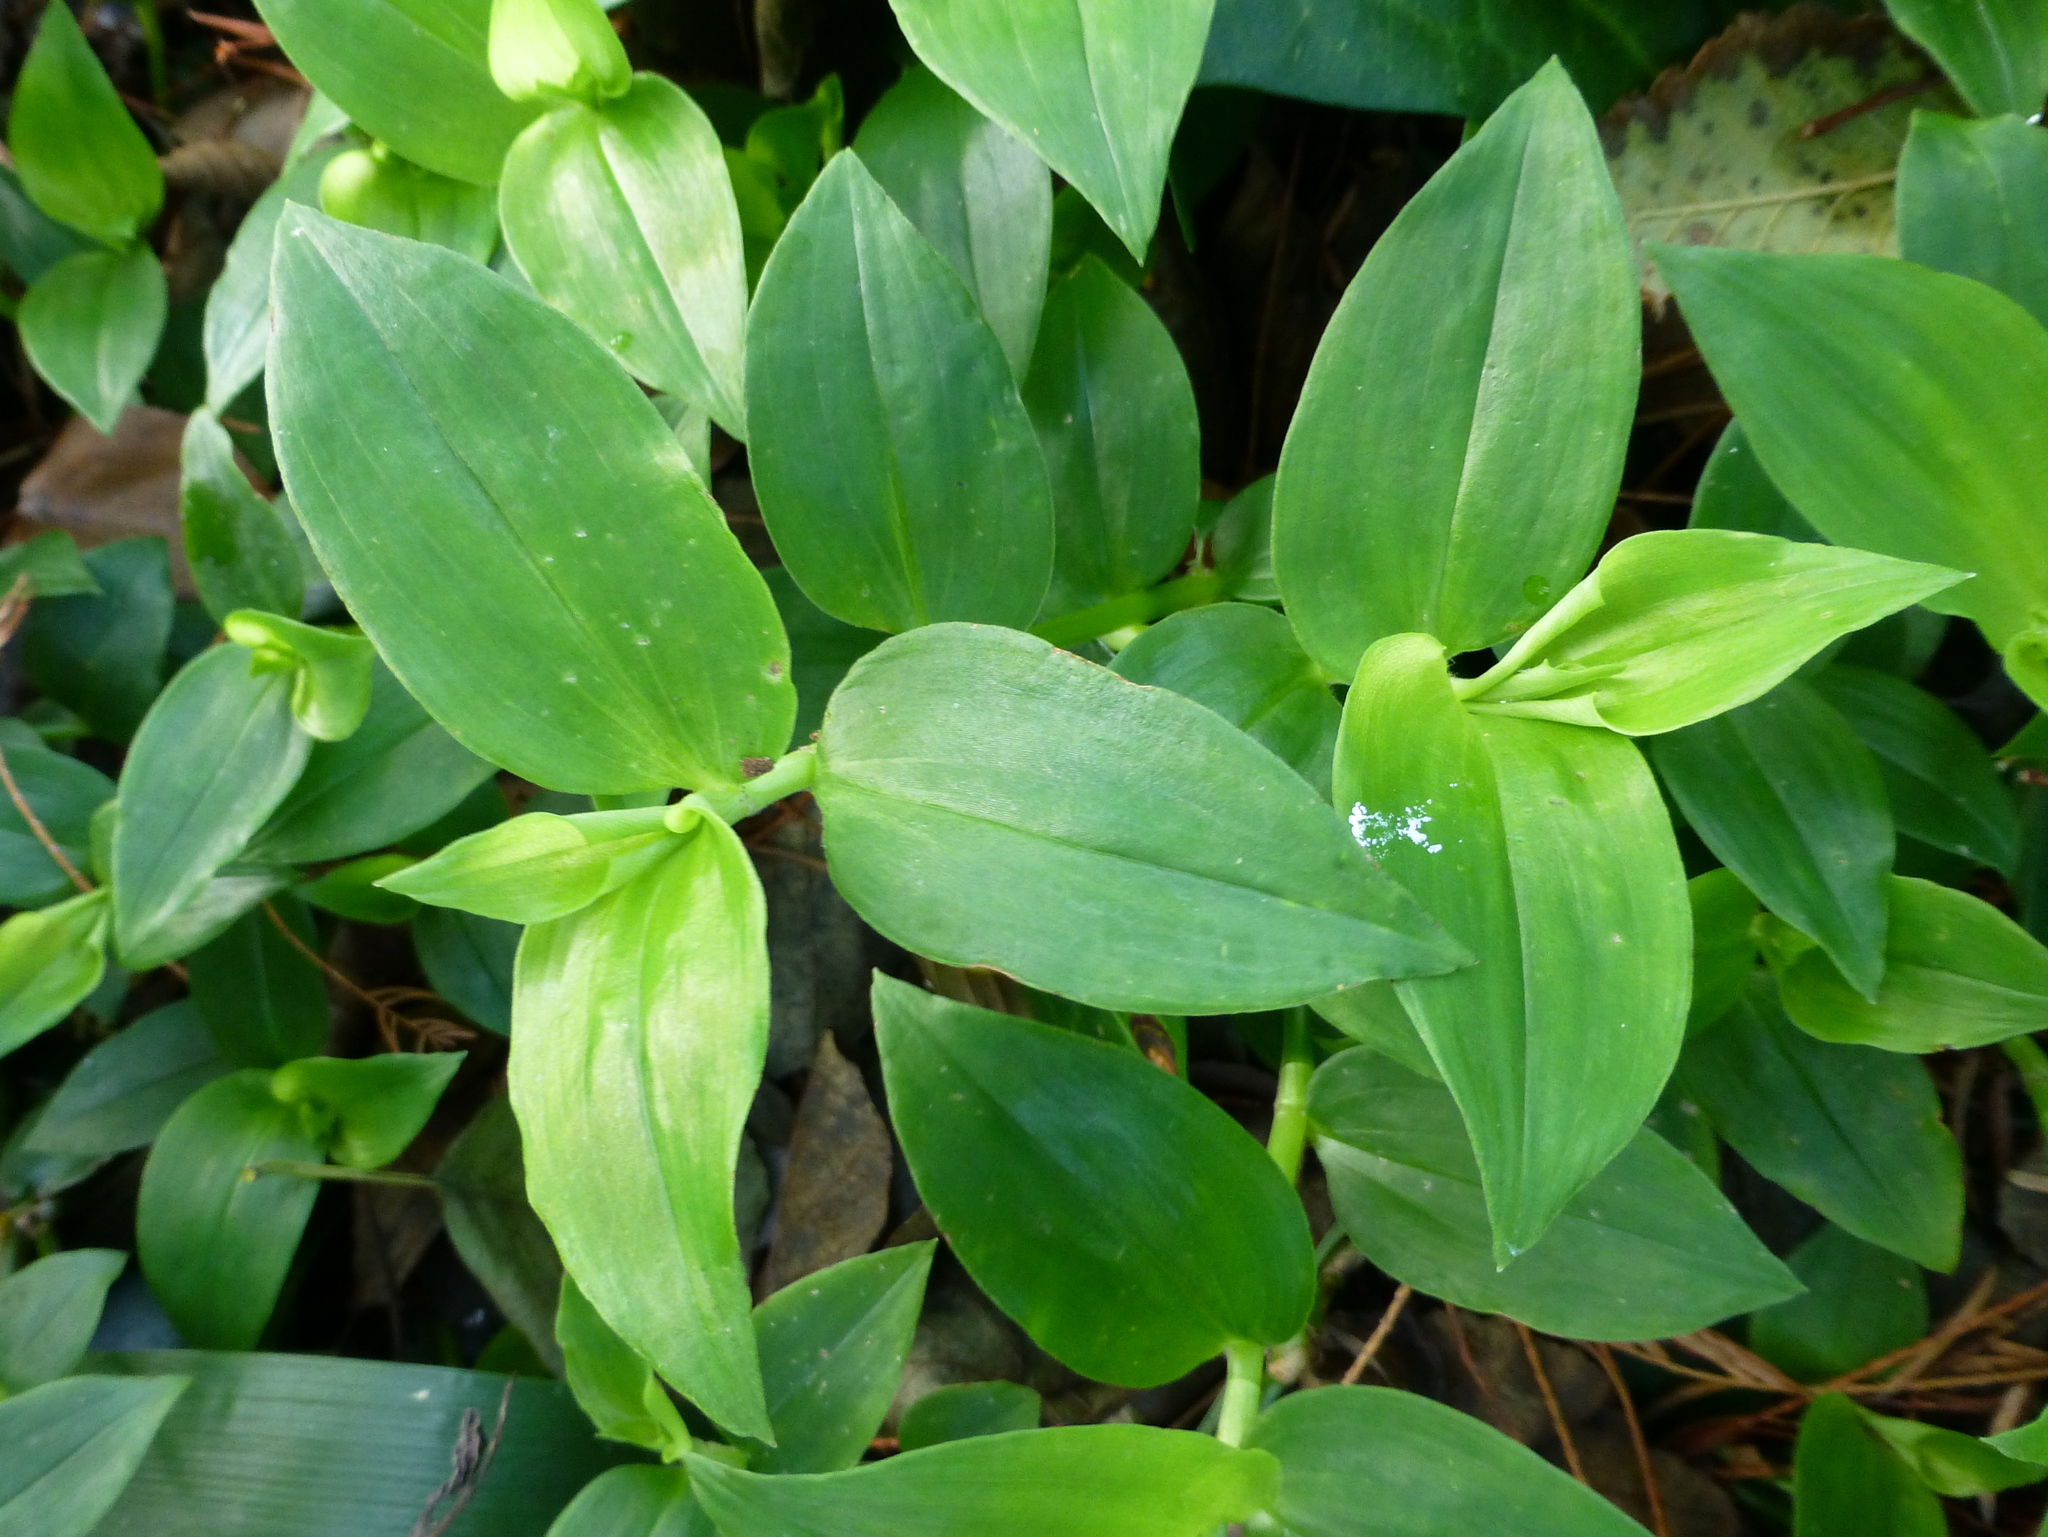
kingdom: Plantae
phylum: Tracheophyta
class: Liliopsida
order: Commelinales
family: Commelinaceae
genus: Tradescantia
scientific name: Tradescantia fluminensis
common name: Wandering-jew
